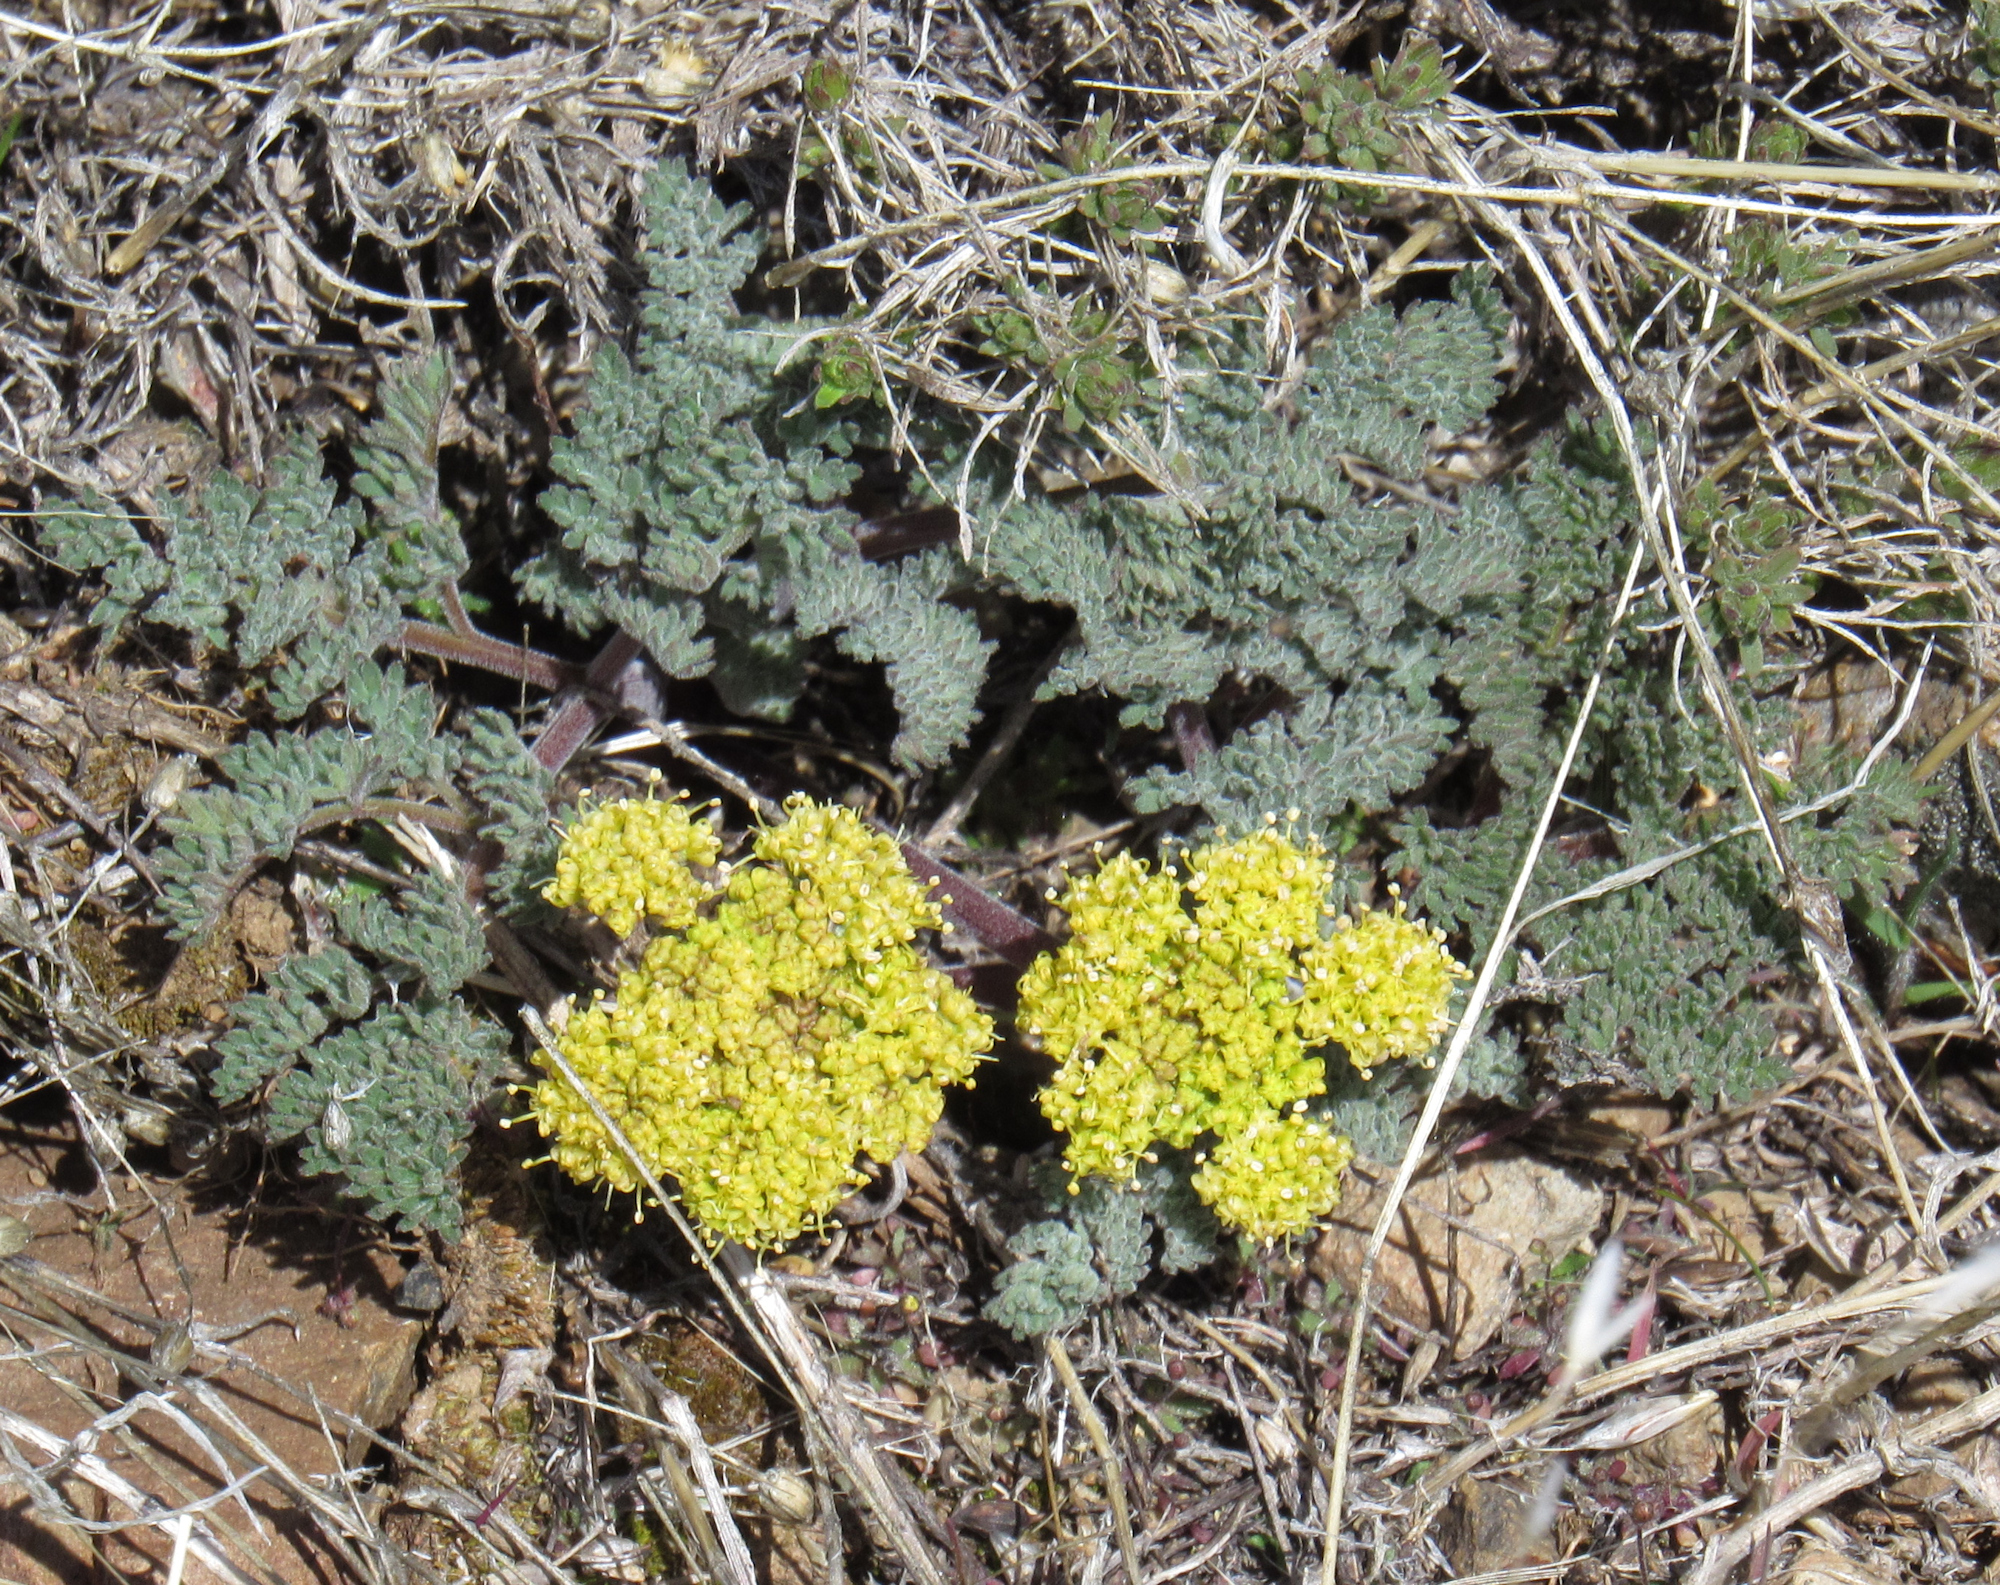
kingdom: Plantae
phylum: Tracheophyta
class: Magnoliopsida
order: Apiales
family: Apiaceae
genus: Lomatium
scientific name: Lomatium foeniculaceum
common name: Desert-parsley
